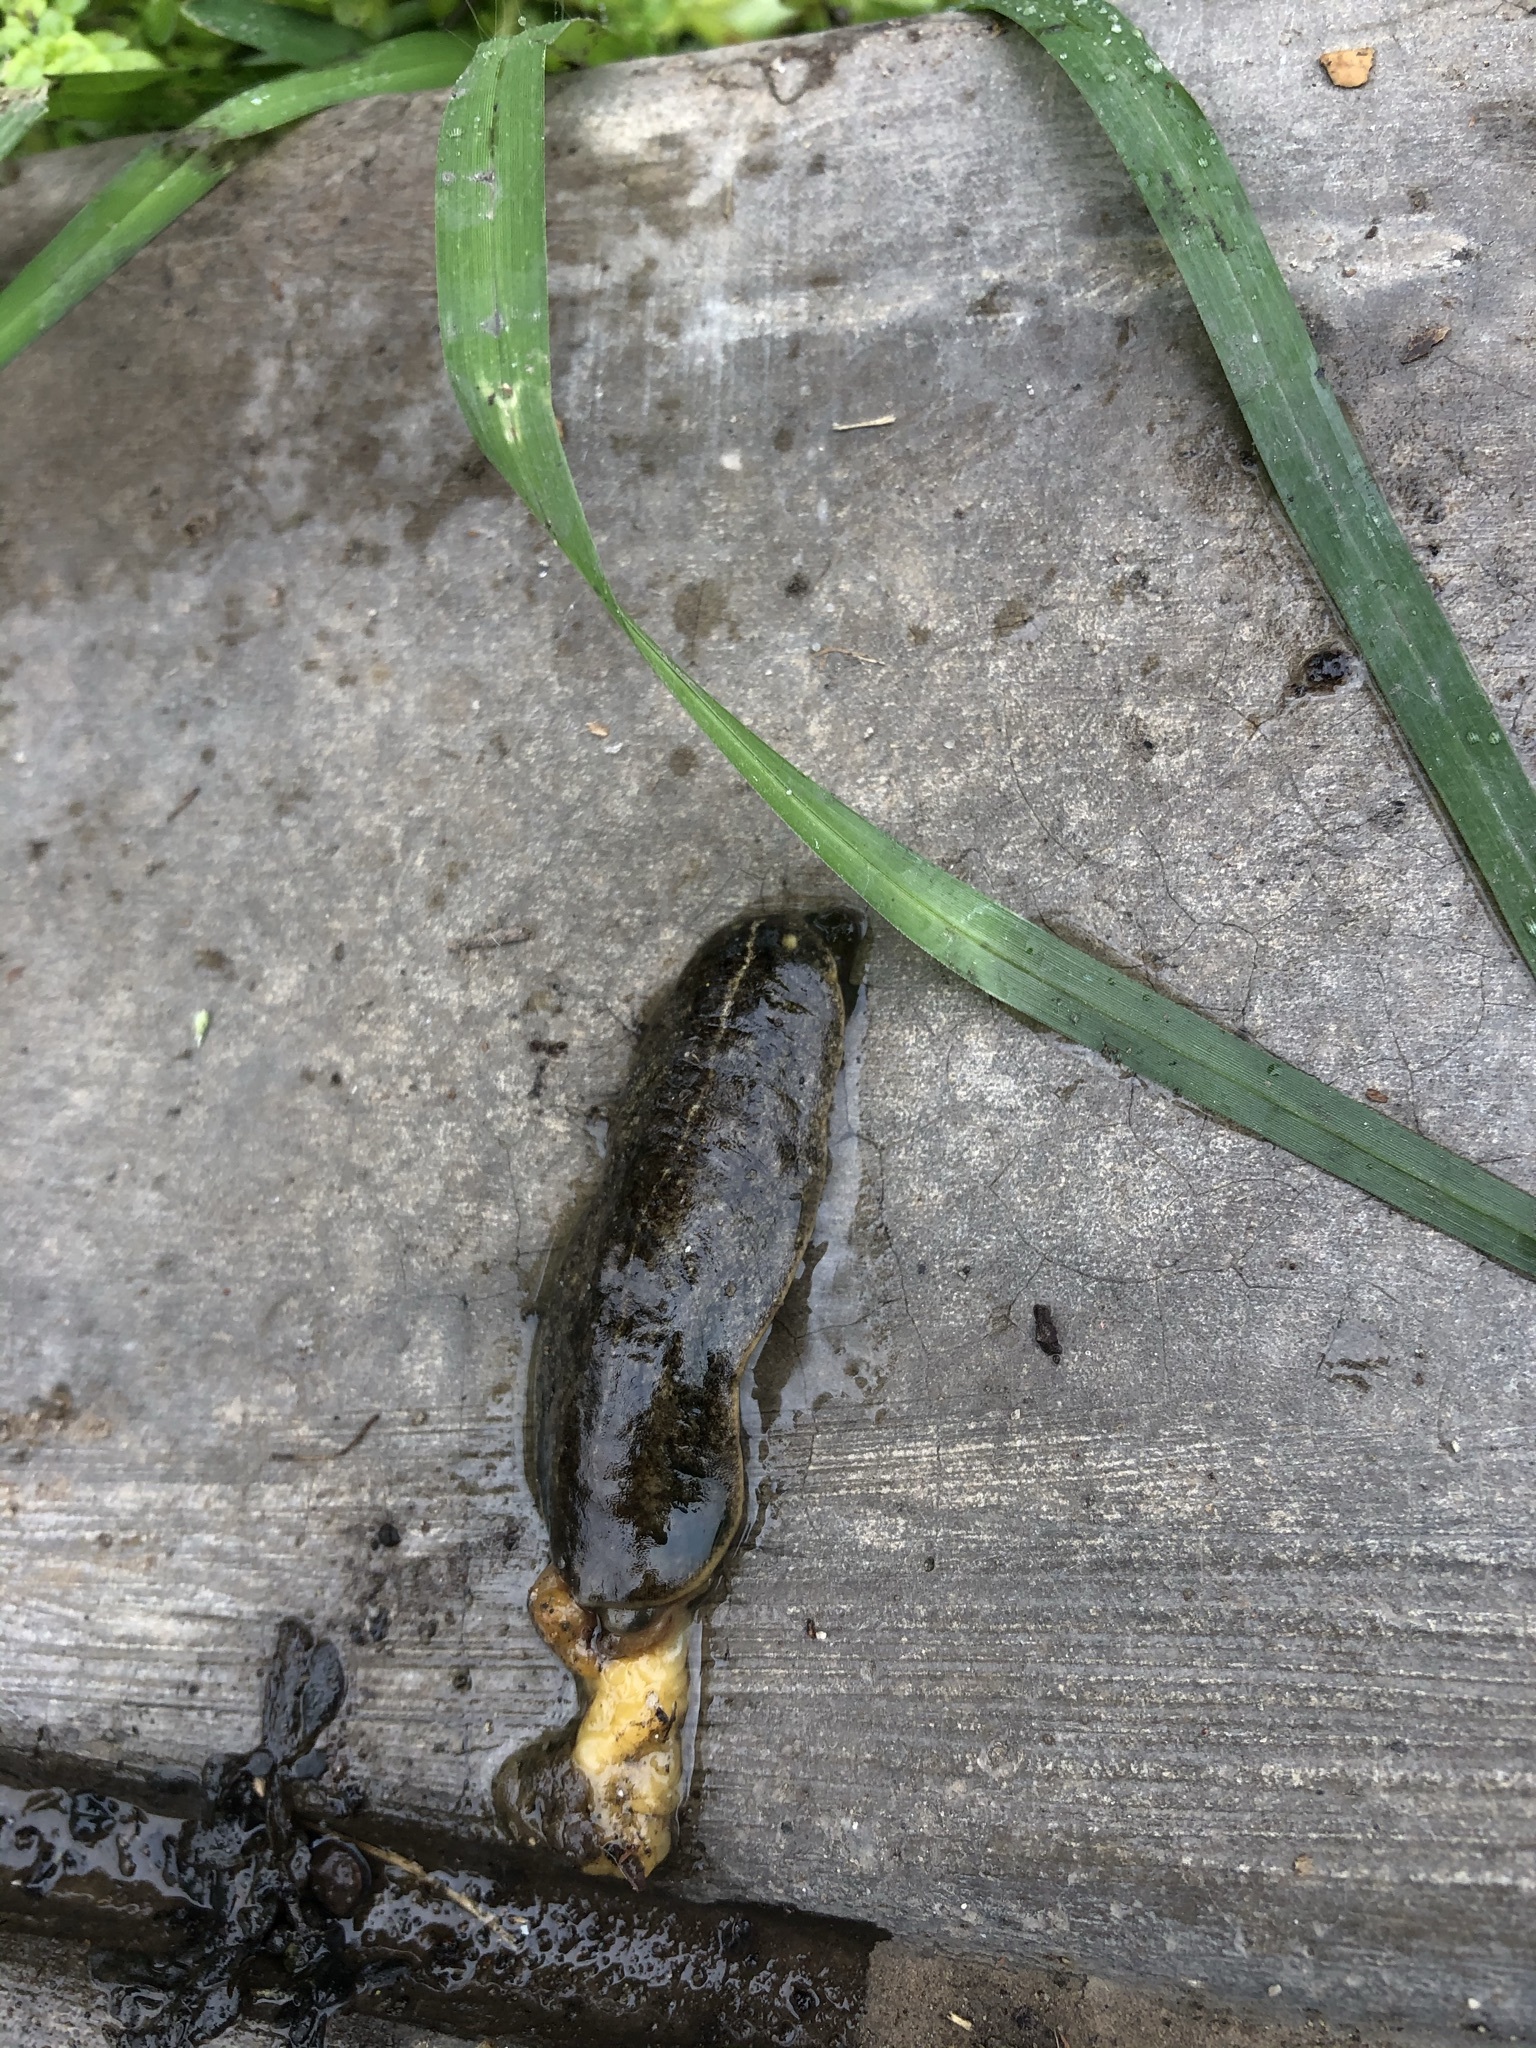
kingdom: Animalia
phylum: Mollusca
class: Gastropoda
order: Systellommatophora
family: Veronicellidae
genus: Heterovaginina
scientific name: Heterovaginina limayana
